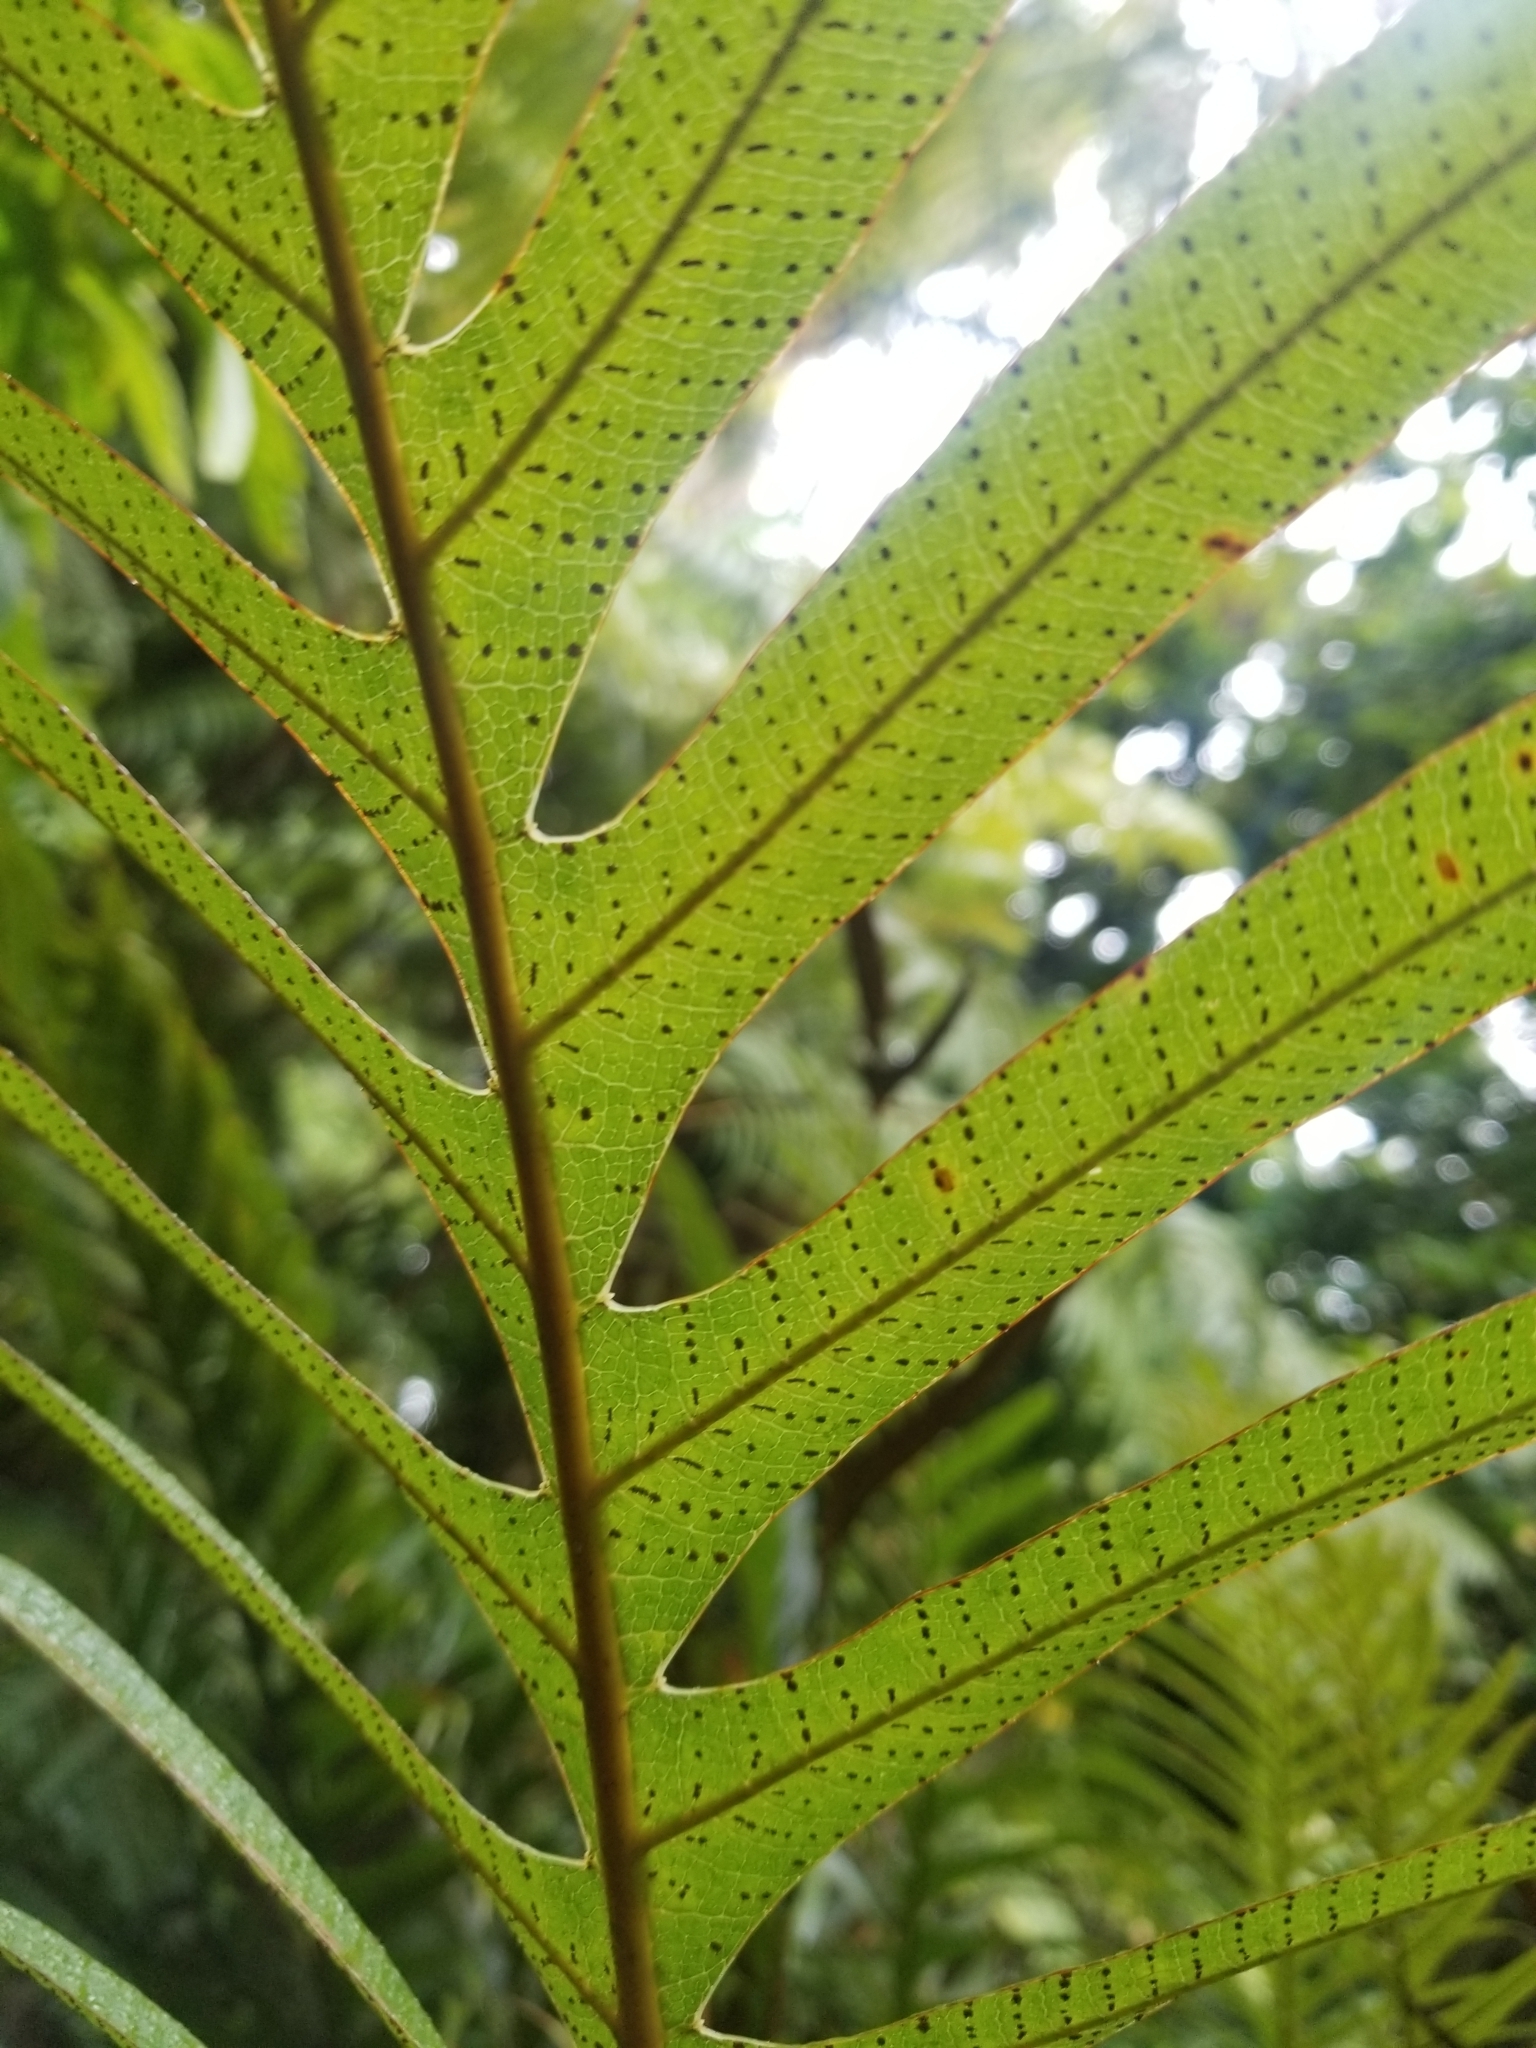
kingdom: Plantae
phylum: Tracheophyta
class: Polypodiopsida
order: Polypodiales
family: Polypodiaceae
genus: Drynaria
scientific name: Drynaria rigidula
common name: Basket fern
